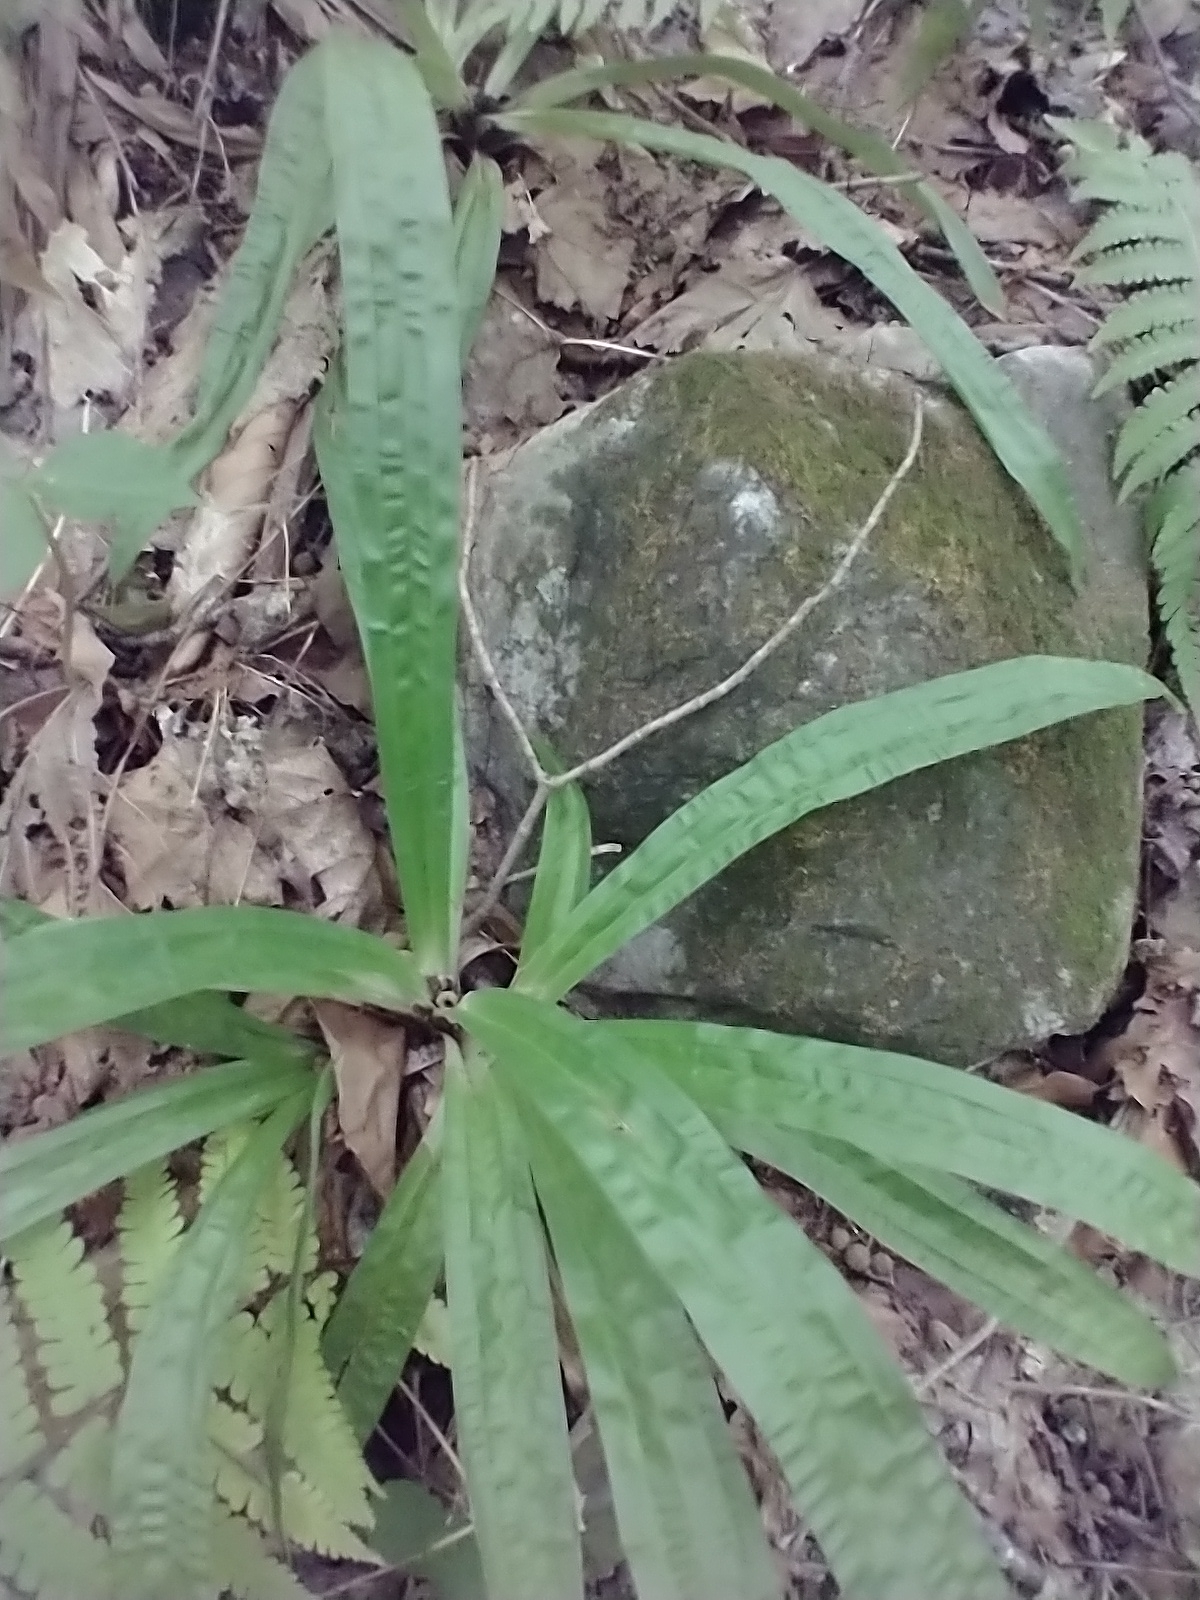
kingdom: Plantae
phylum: Tracheophyta
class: Liliopsida
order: Poales
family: Cyperaceae
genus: Carex
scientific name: Carex plantaginea
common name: Plantain-leaved sedge
